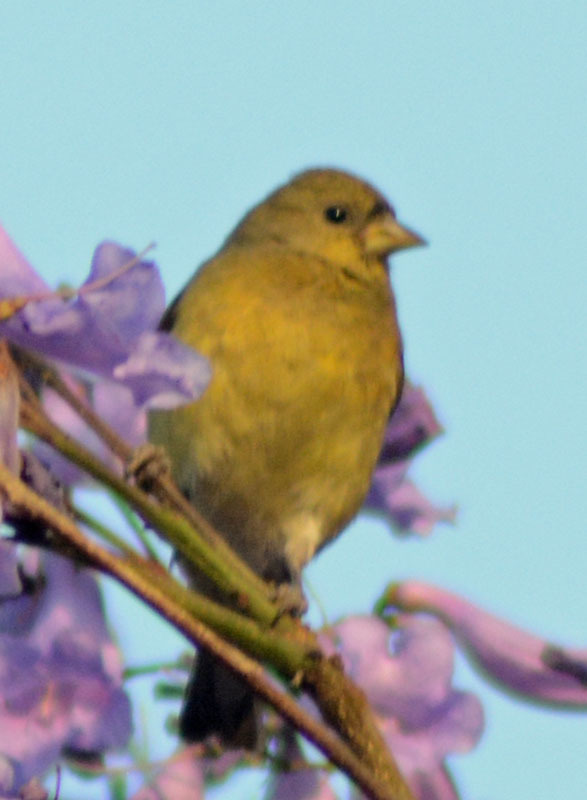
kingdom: Animalia
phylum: Chordata
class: Aves
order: Passeriformes
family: Fringillidae
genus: Spinus
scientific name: Spinus psaltria
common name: Lesser goldfinch
